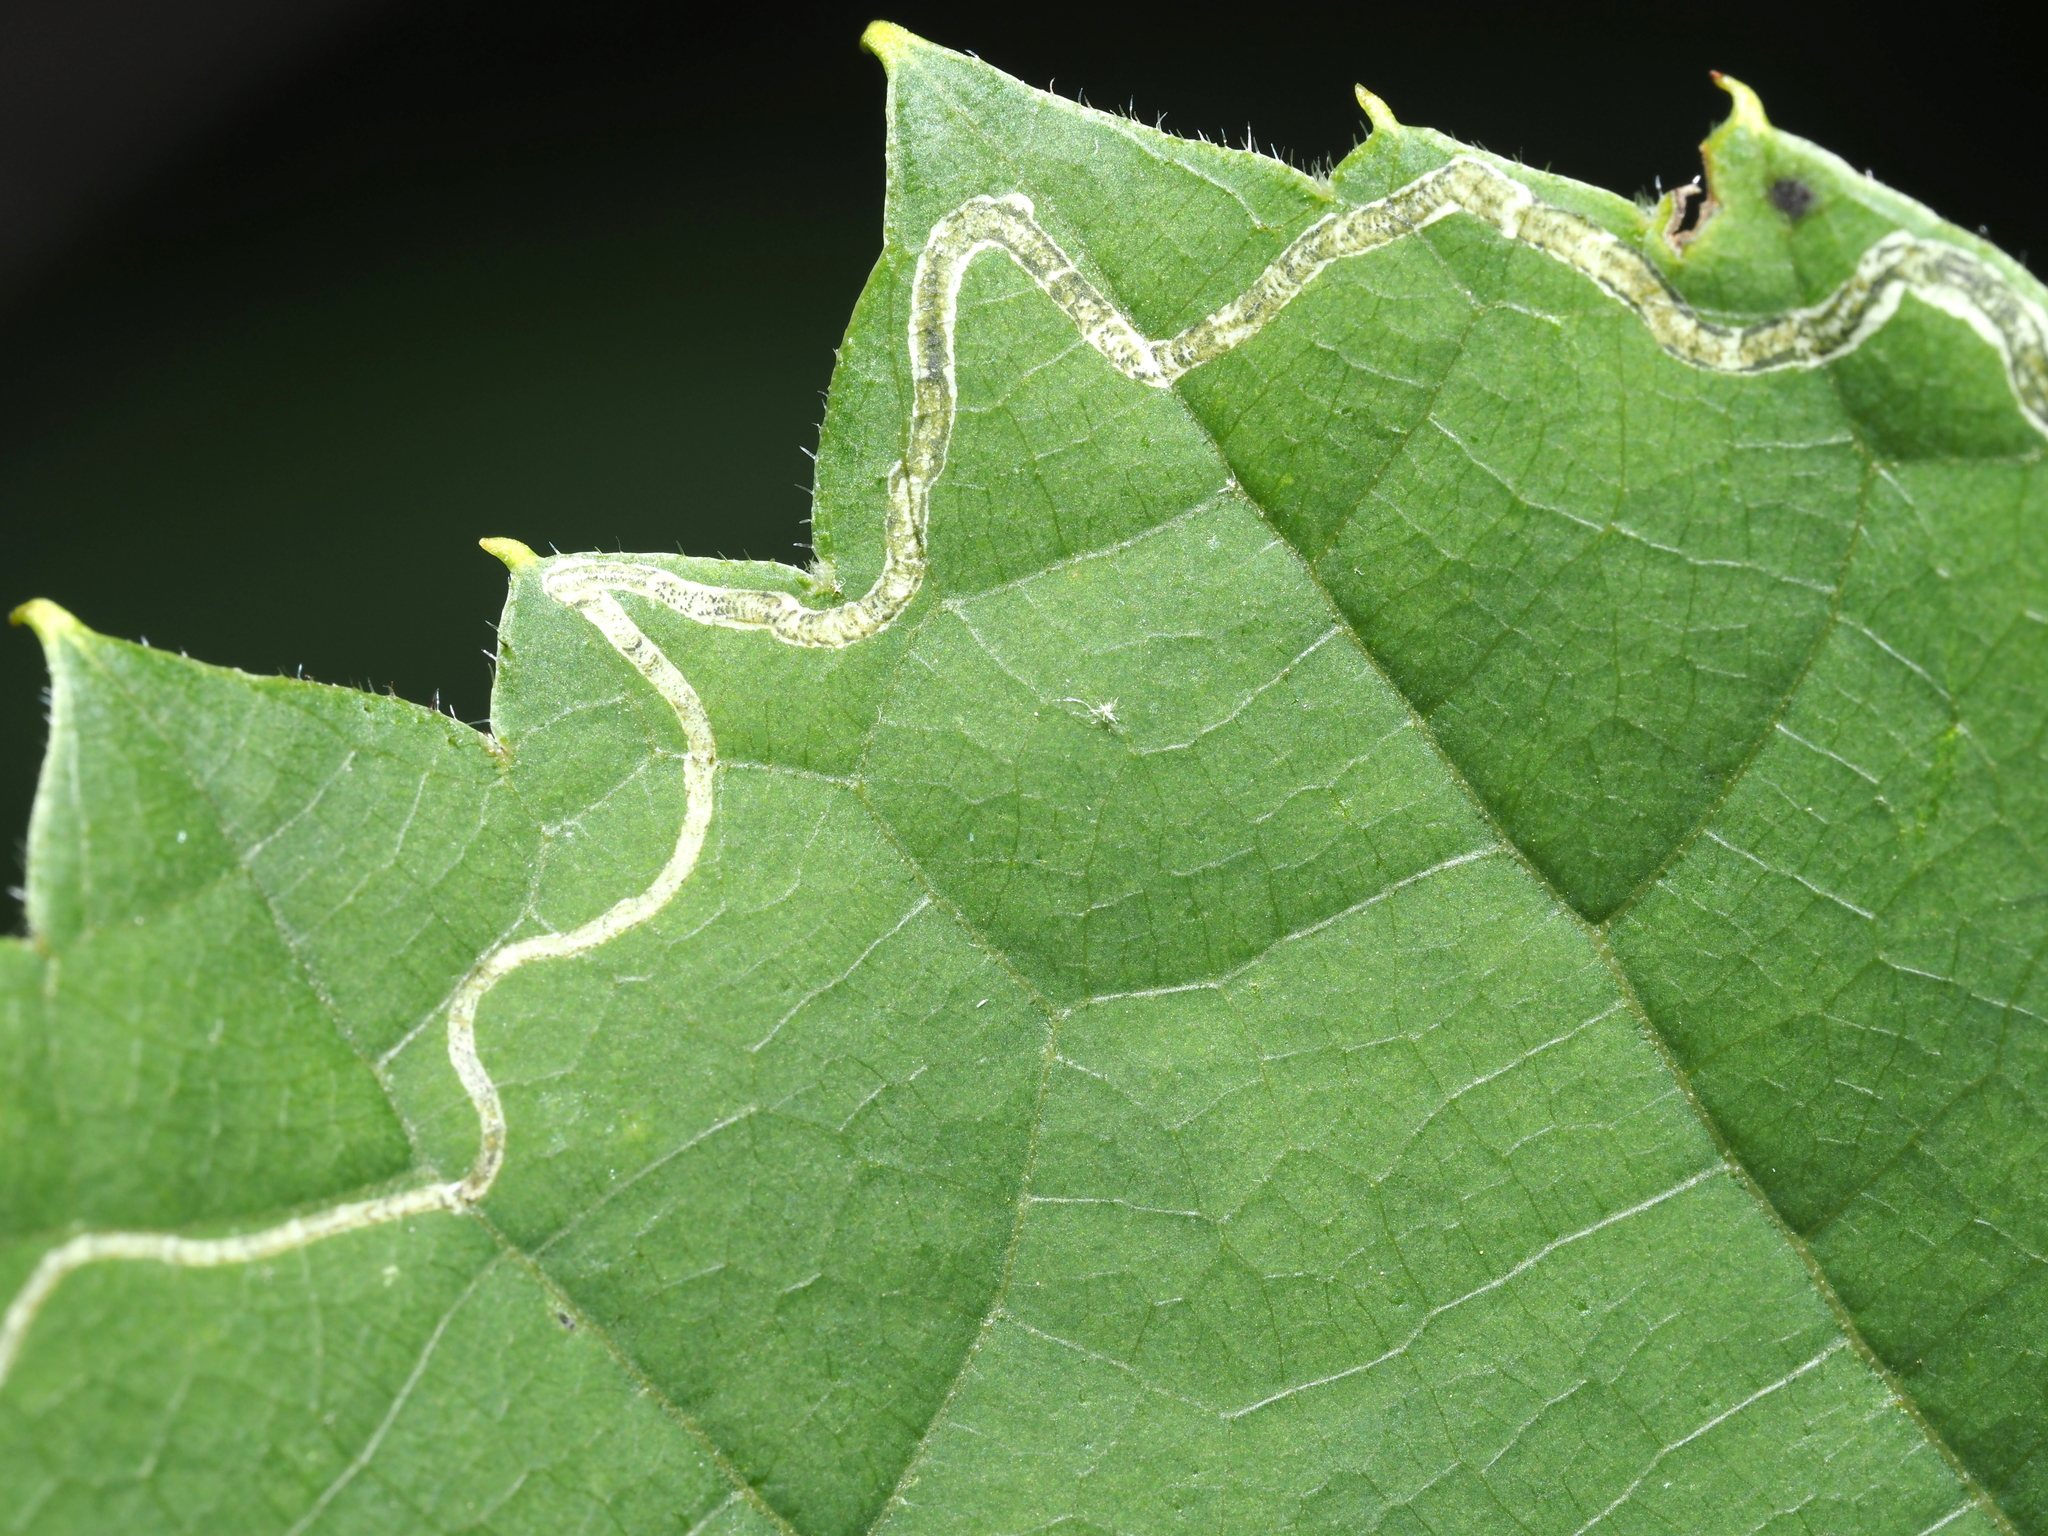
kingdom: Animalia
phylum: Arthropoda
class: Insecta
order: Lepidoptera
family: Gracillariidae
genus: Phyllocnistis
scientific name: Phyllocnistis vitifoliella
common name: Grape leaf-miner moth
